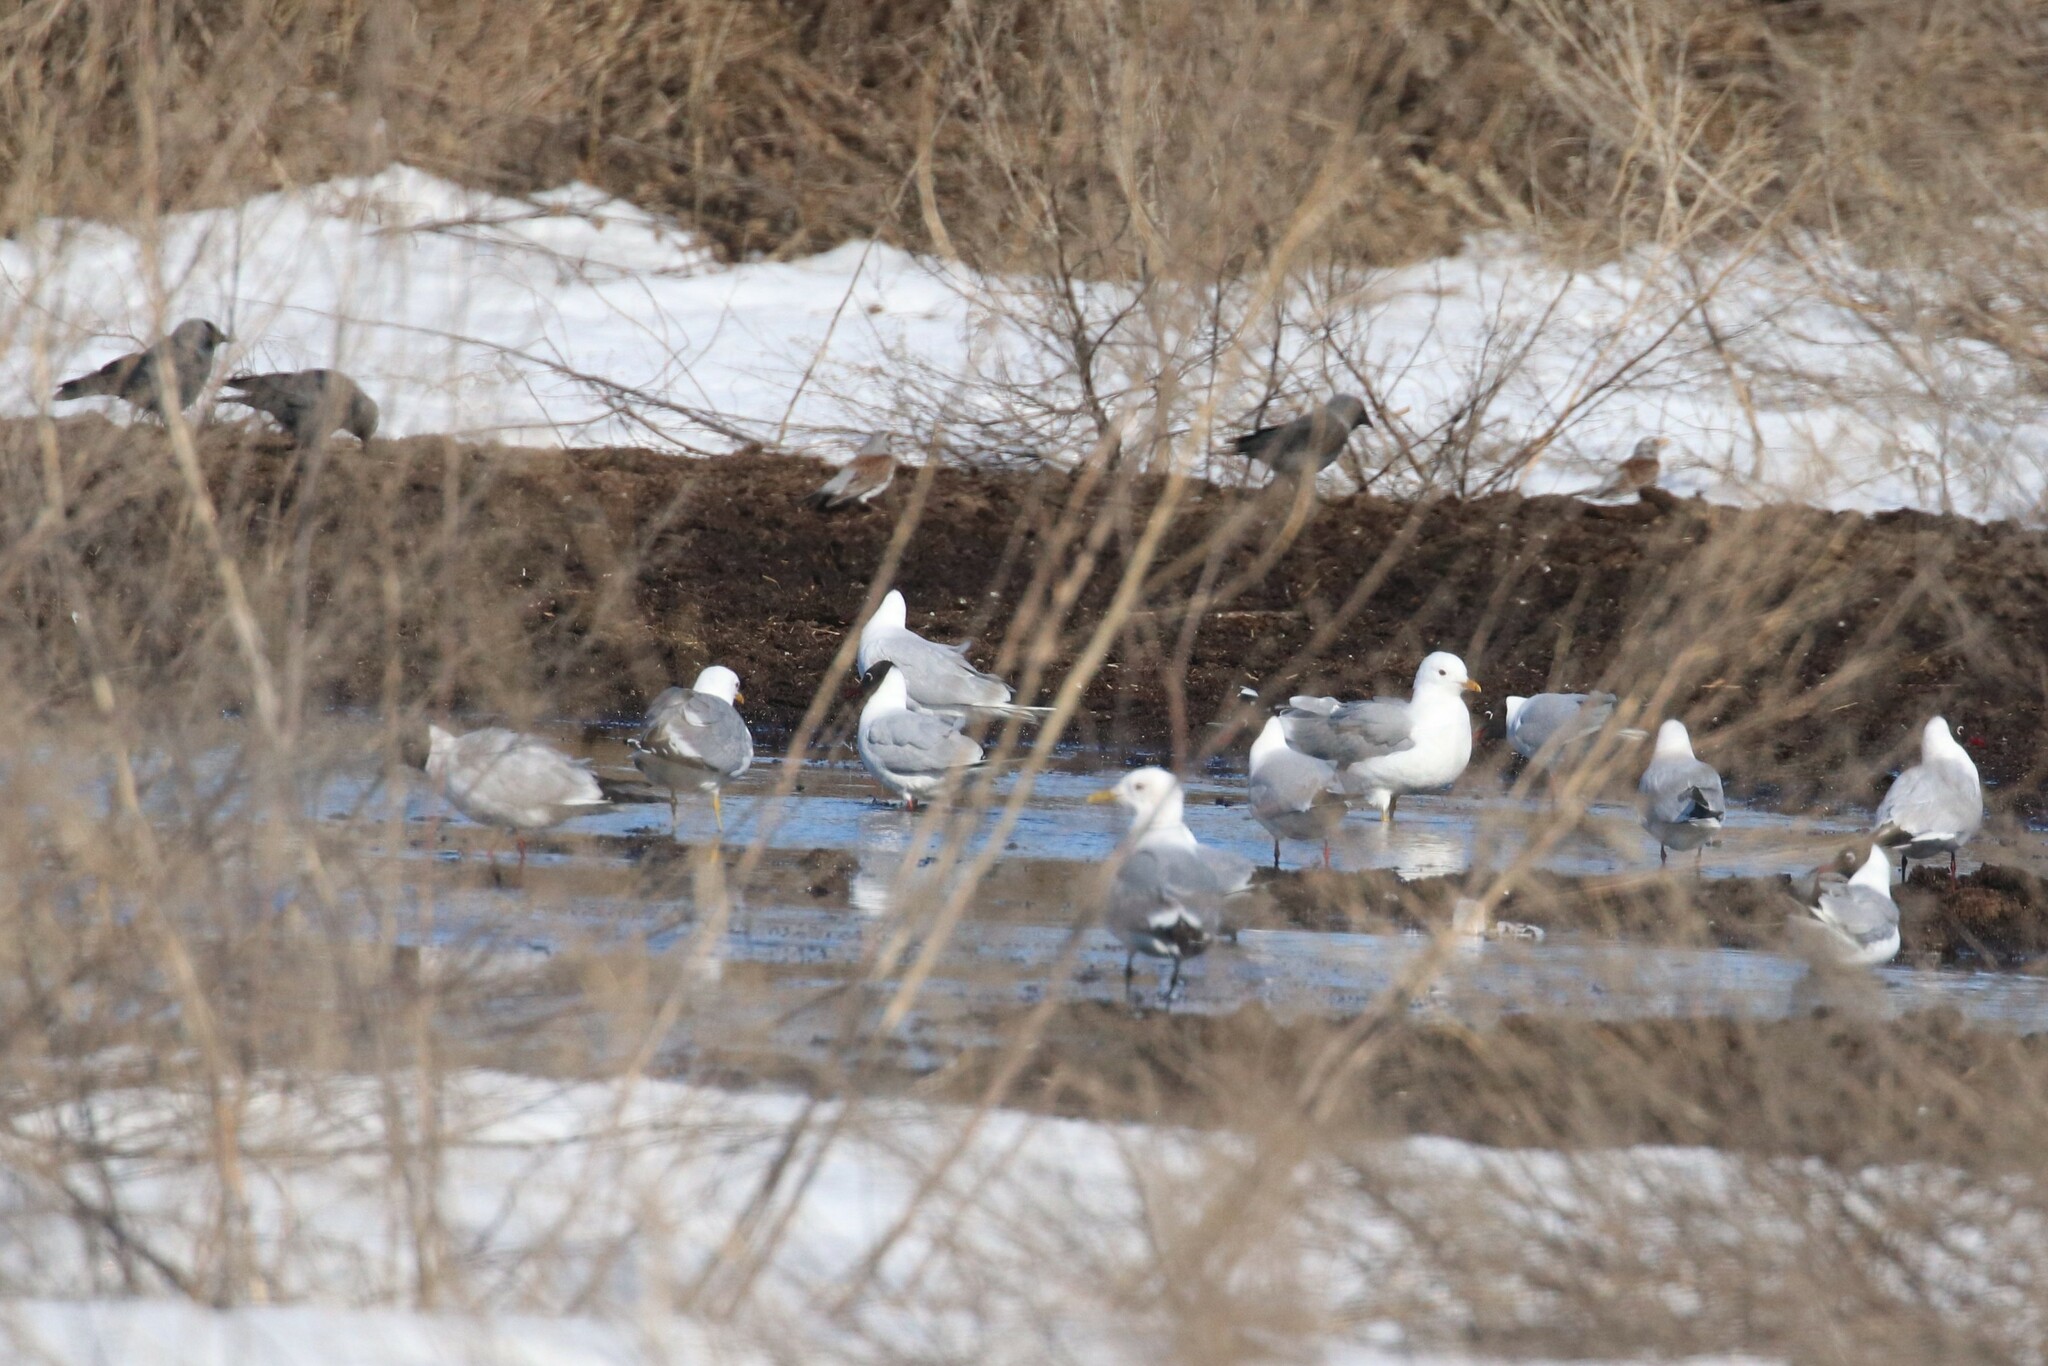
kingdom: Animalia
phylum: Chordata
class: Aves
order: Charadriiformes
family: Laridae
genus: Larus
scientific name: Larus canus
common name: Mew gull
